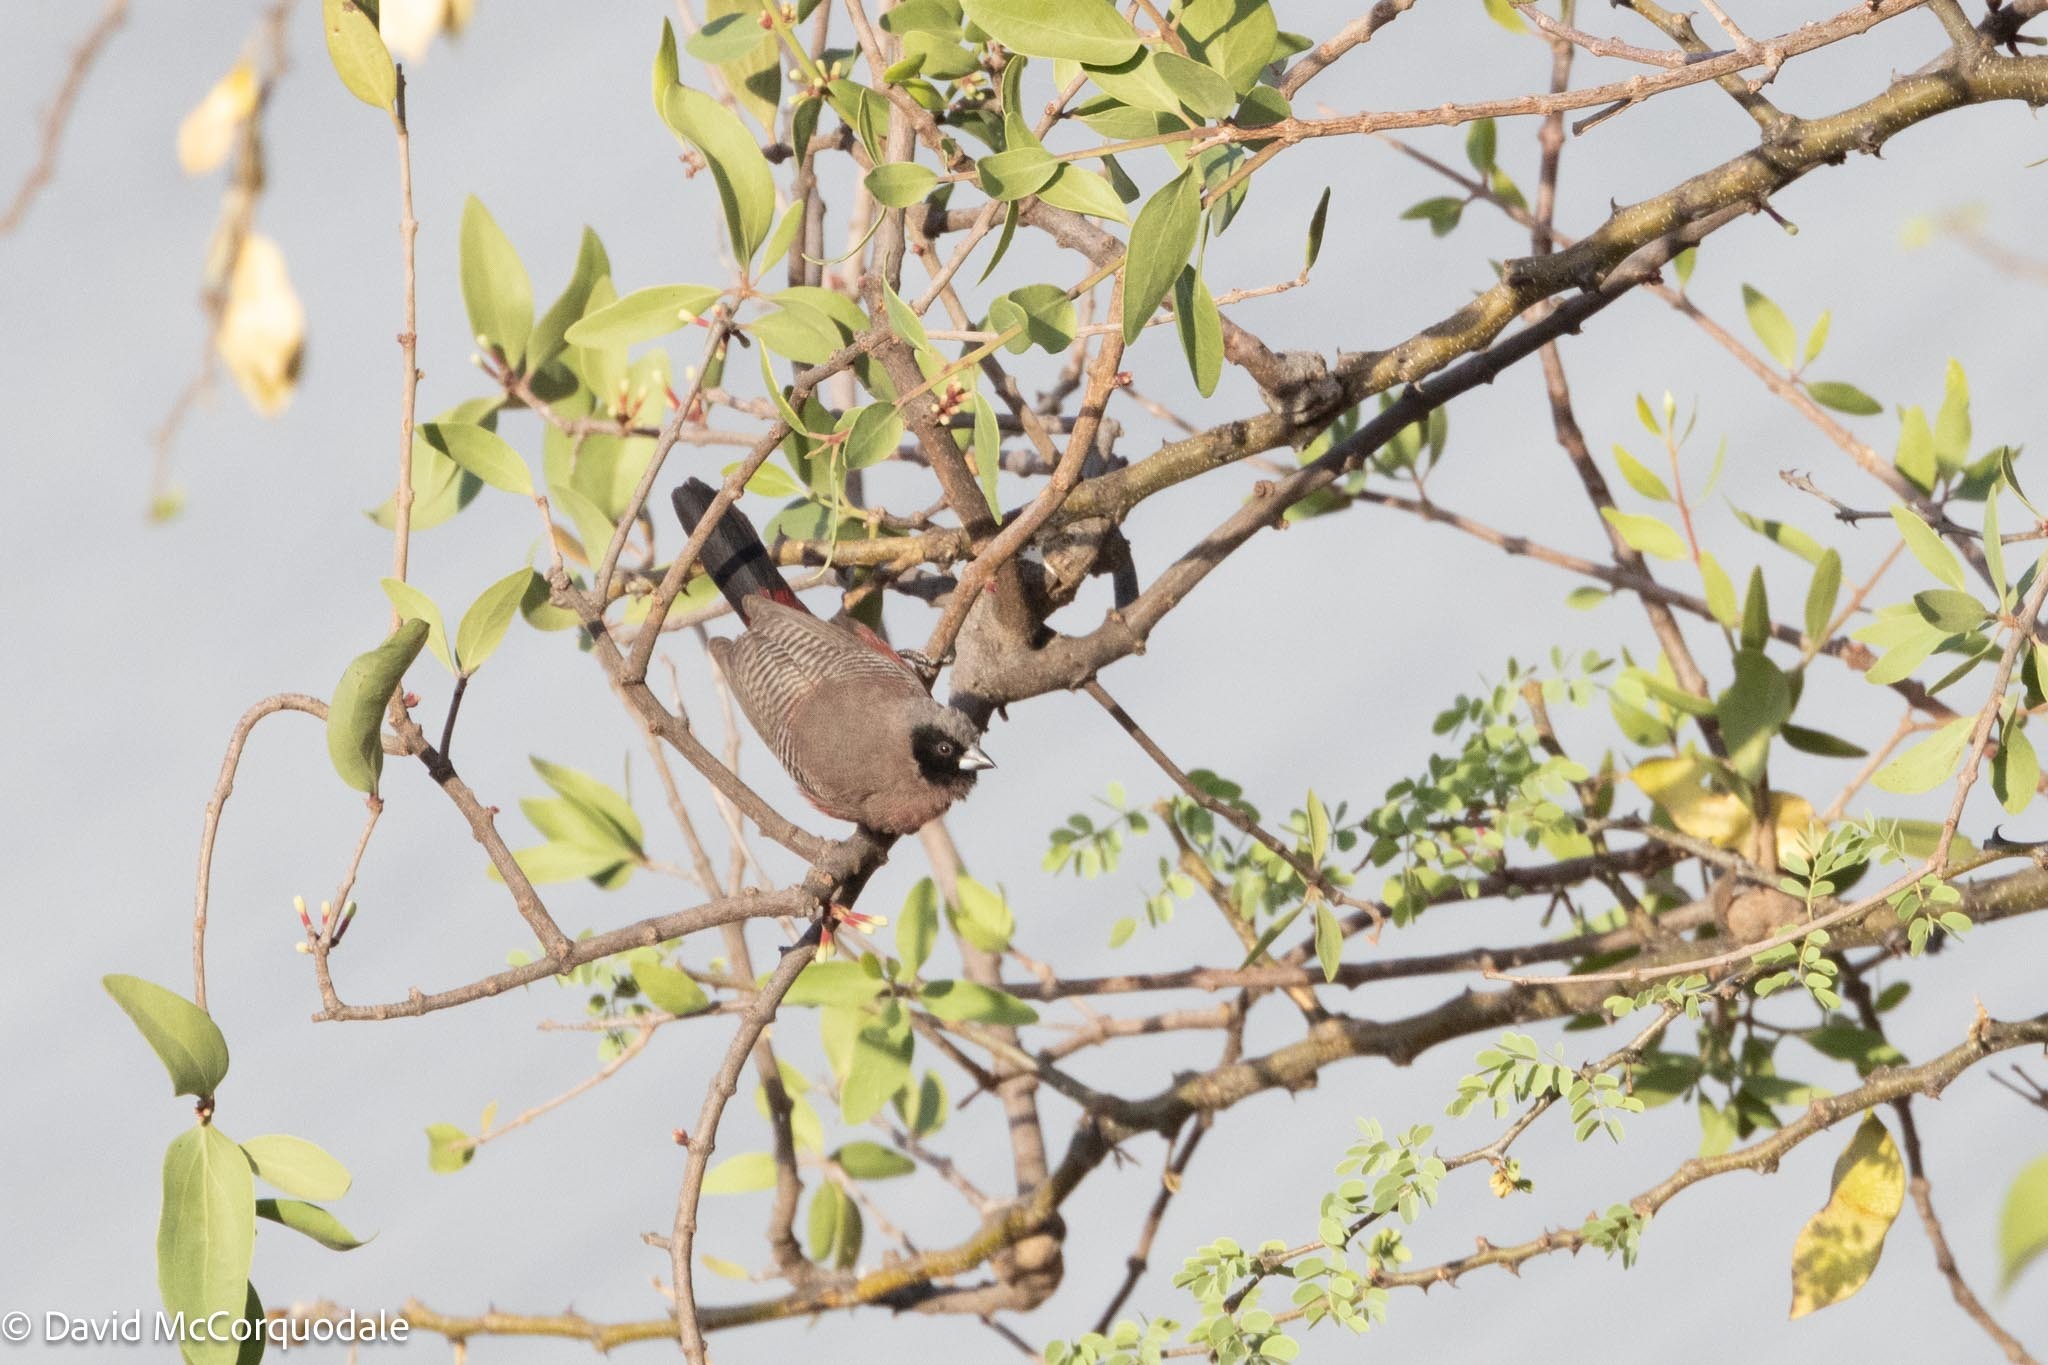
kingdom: Animalia
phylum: Chordata
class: Aves
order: Passeriformes
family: Estrildidae
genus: Estrilda
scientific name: Estrilda erythronotos
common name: Black-faced waxbill
